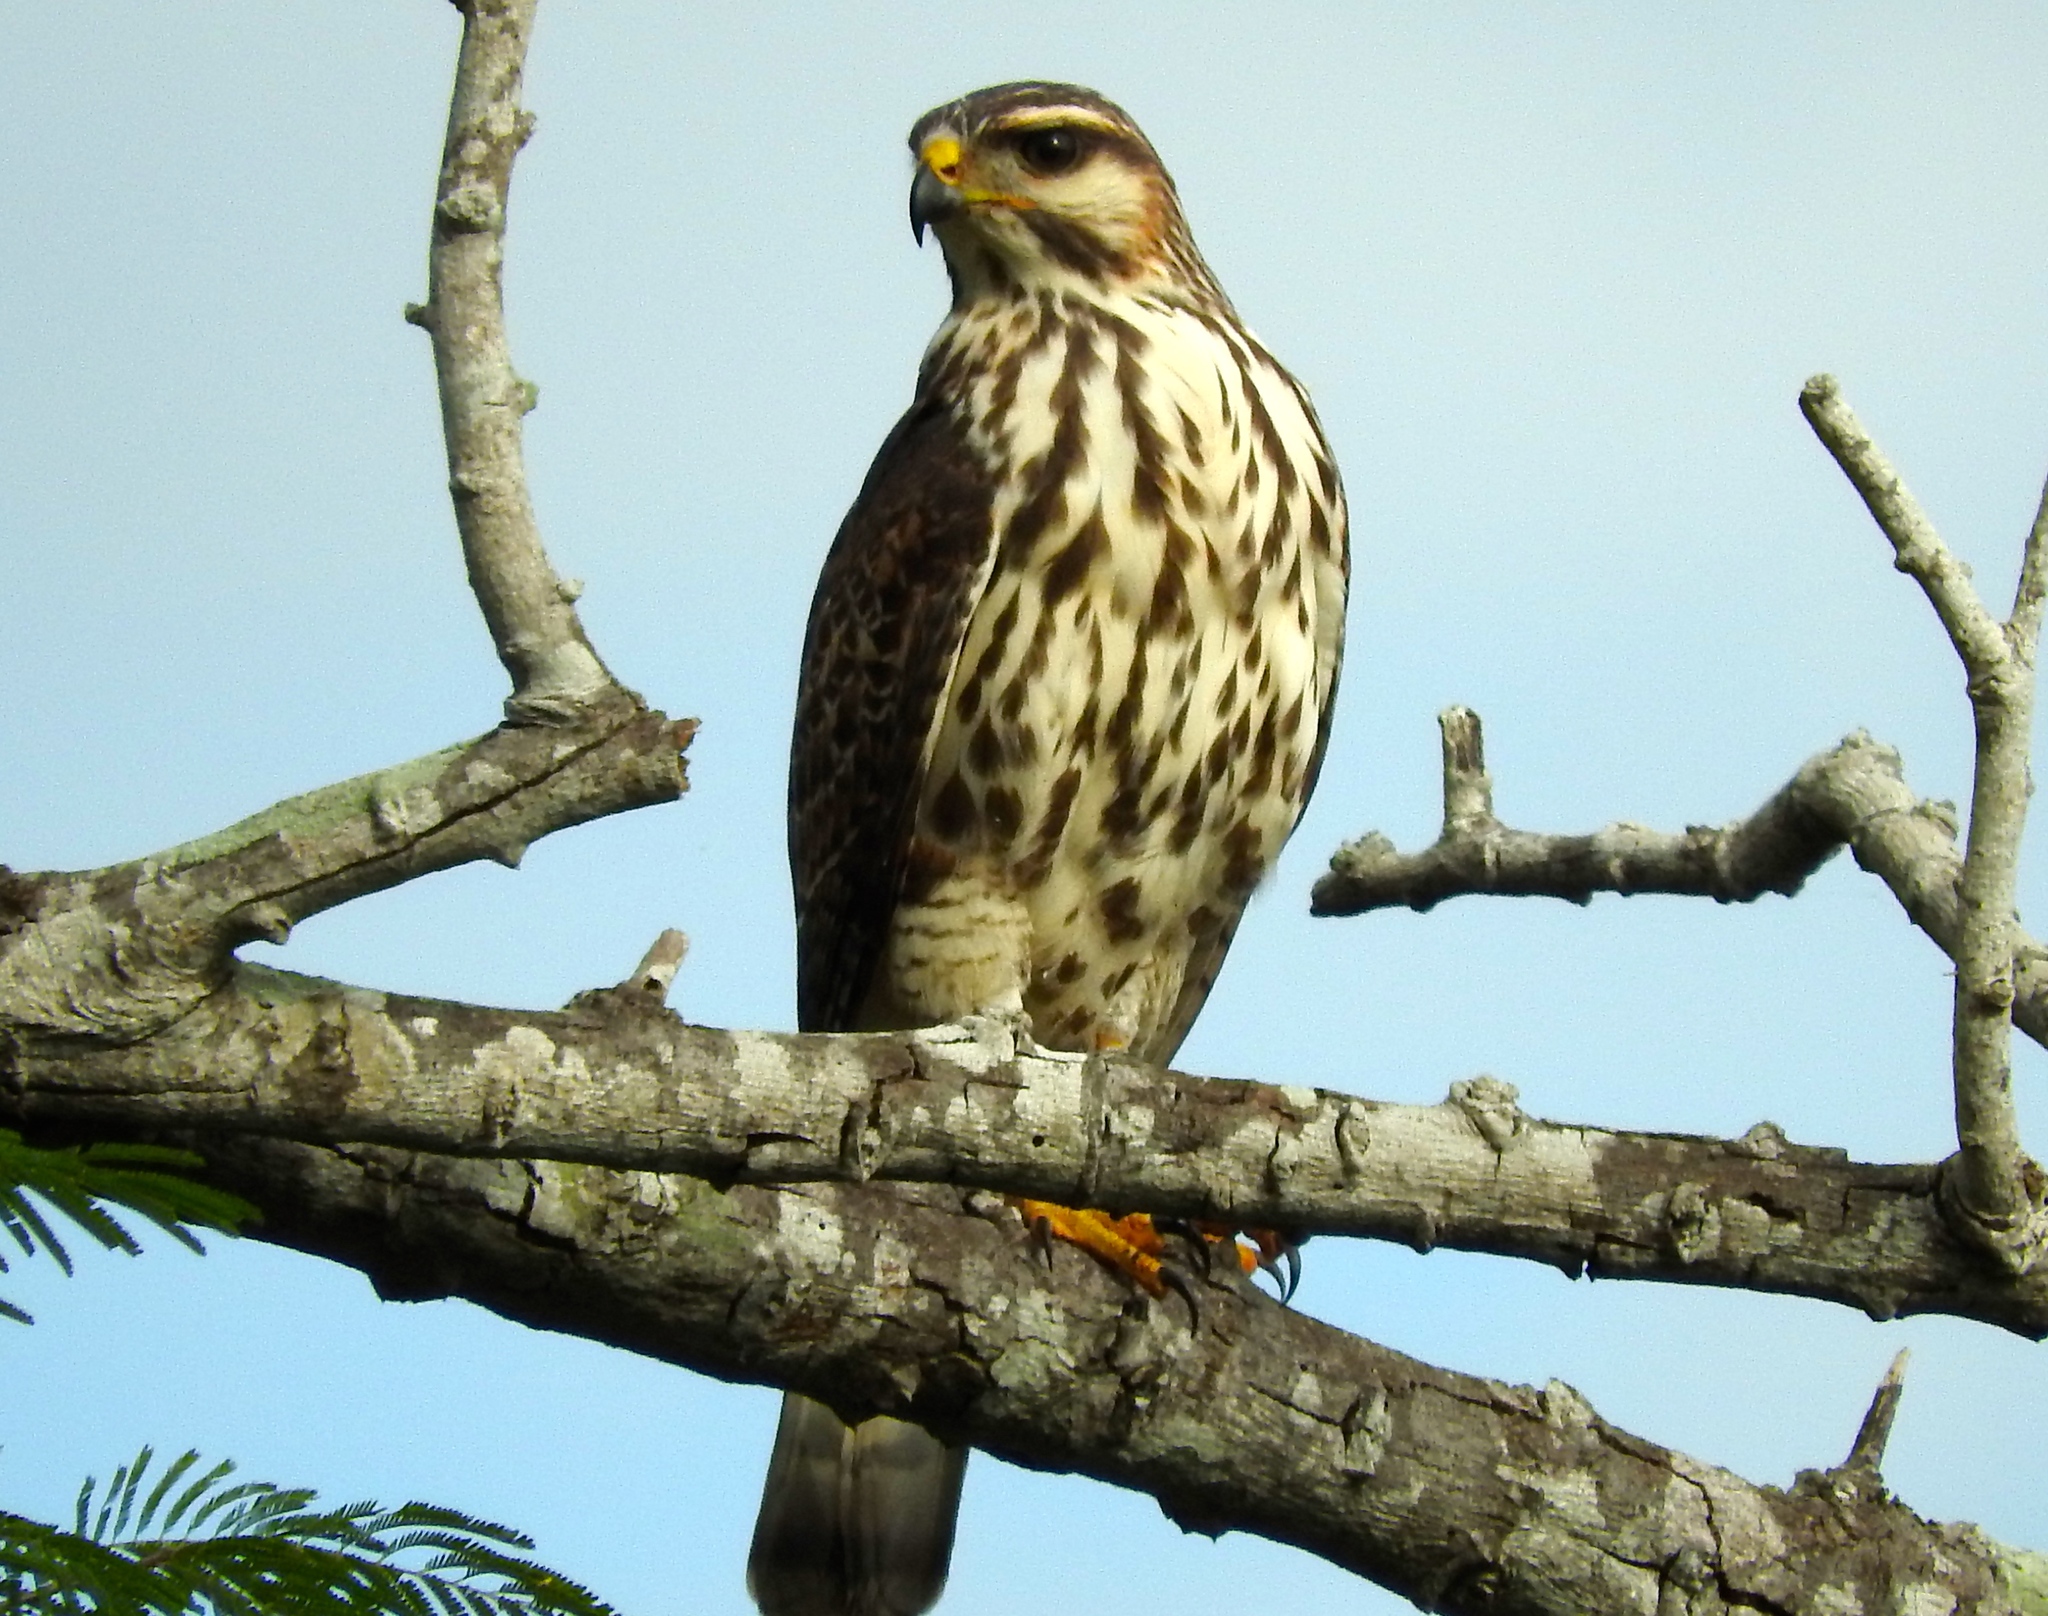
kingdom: Animalia
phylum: Chordata
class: Aves
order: Accipitriformes
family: Accipitridae
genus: Buteo
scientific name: Buteo nitidus
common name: Grey-lined hawk
